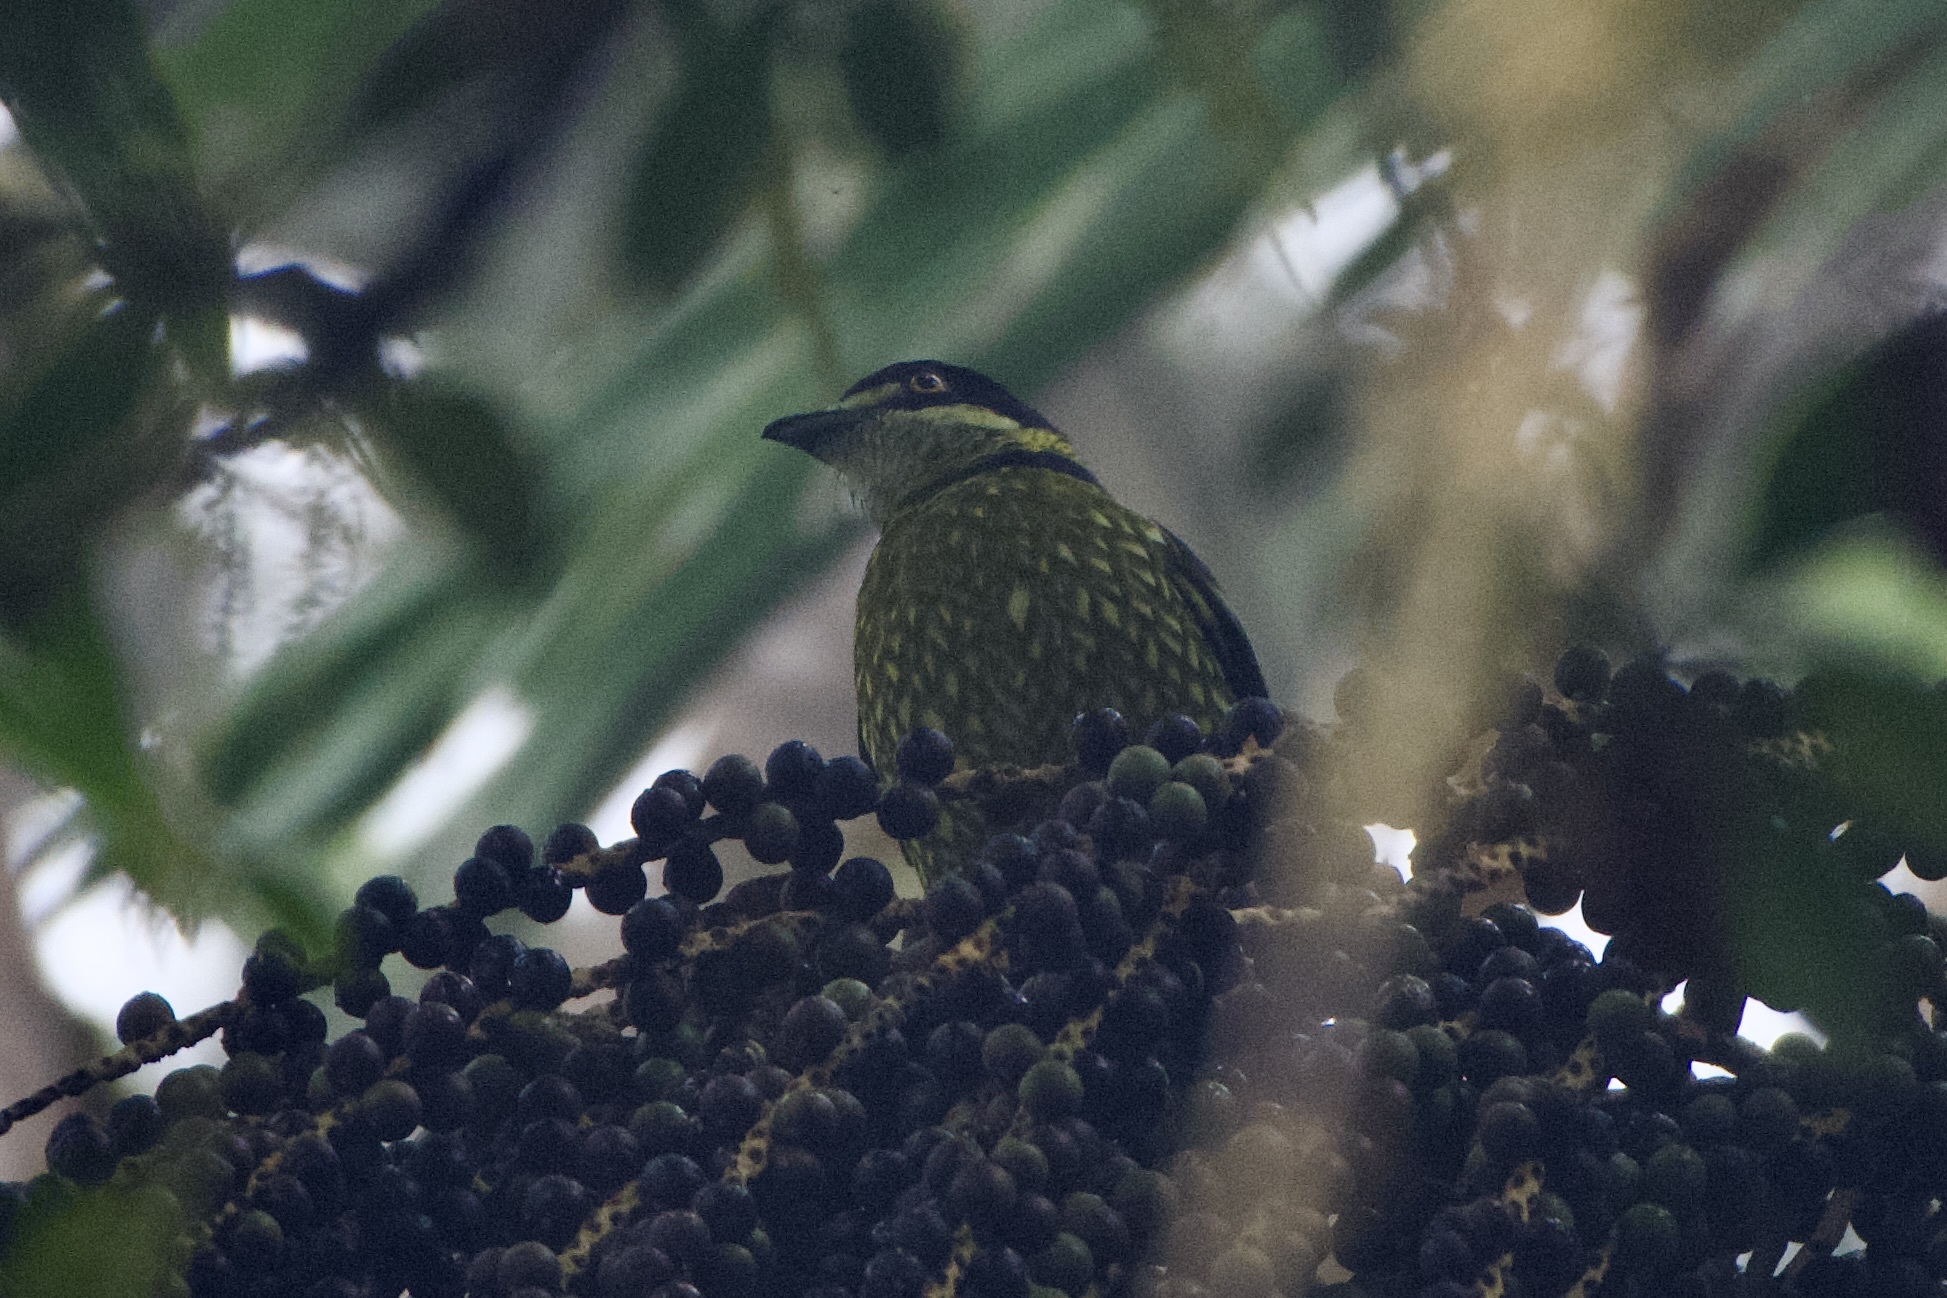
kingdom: Animalia
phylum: Chordata
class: Aves
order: Passeriformes
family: Cotingidae
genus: Ampelioides
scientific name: Ampelioides tschudii
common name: Scaled fruiteater
